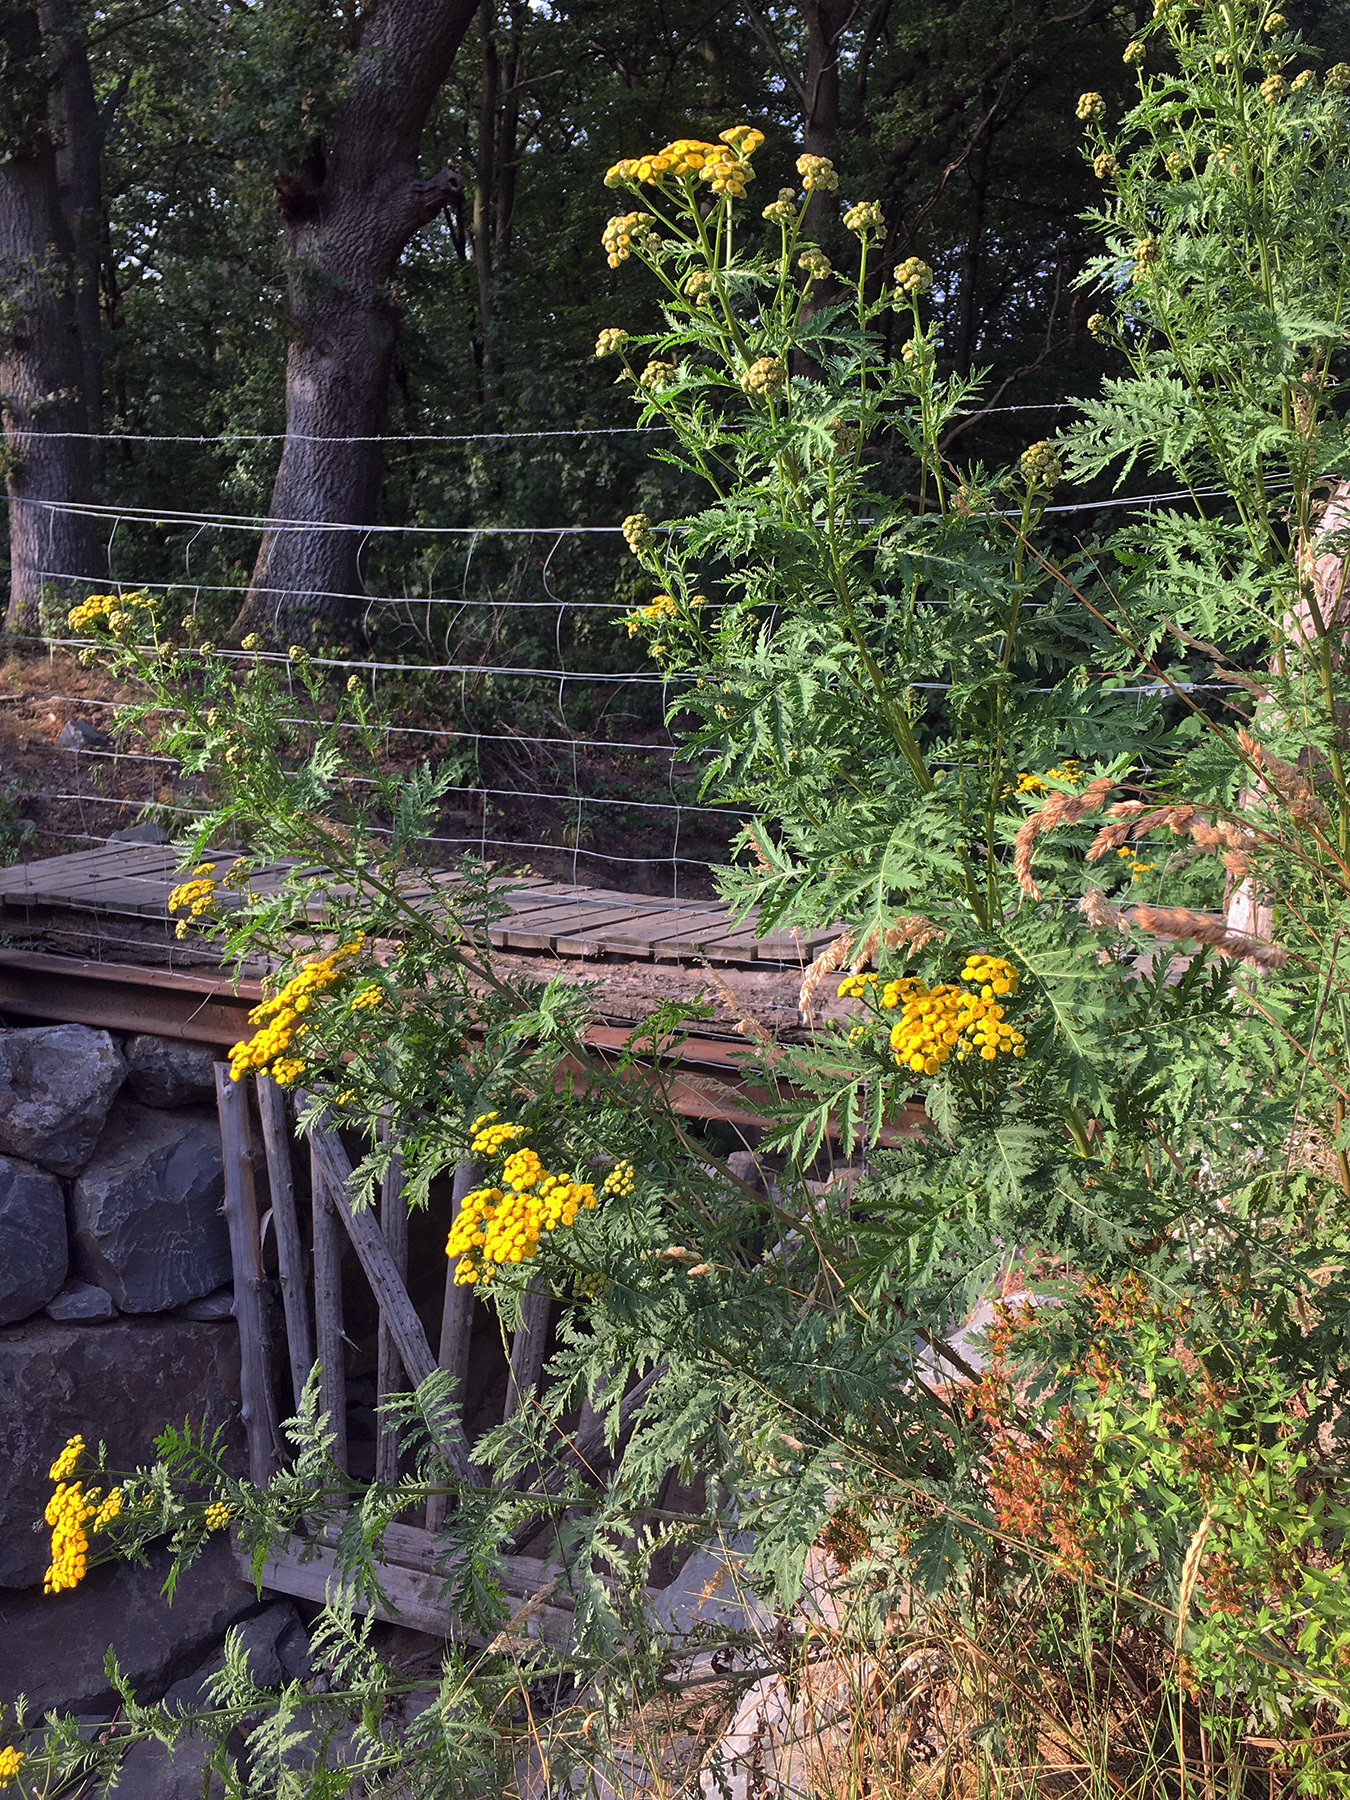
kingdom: Plantae
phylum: Tracheophyta
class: Magnoliopsida
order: Asterales
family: Asteraceae
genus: Tanacetum
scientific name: Tanacetum vulgare
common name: Common tansy
